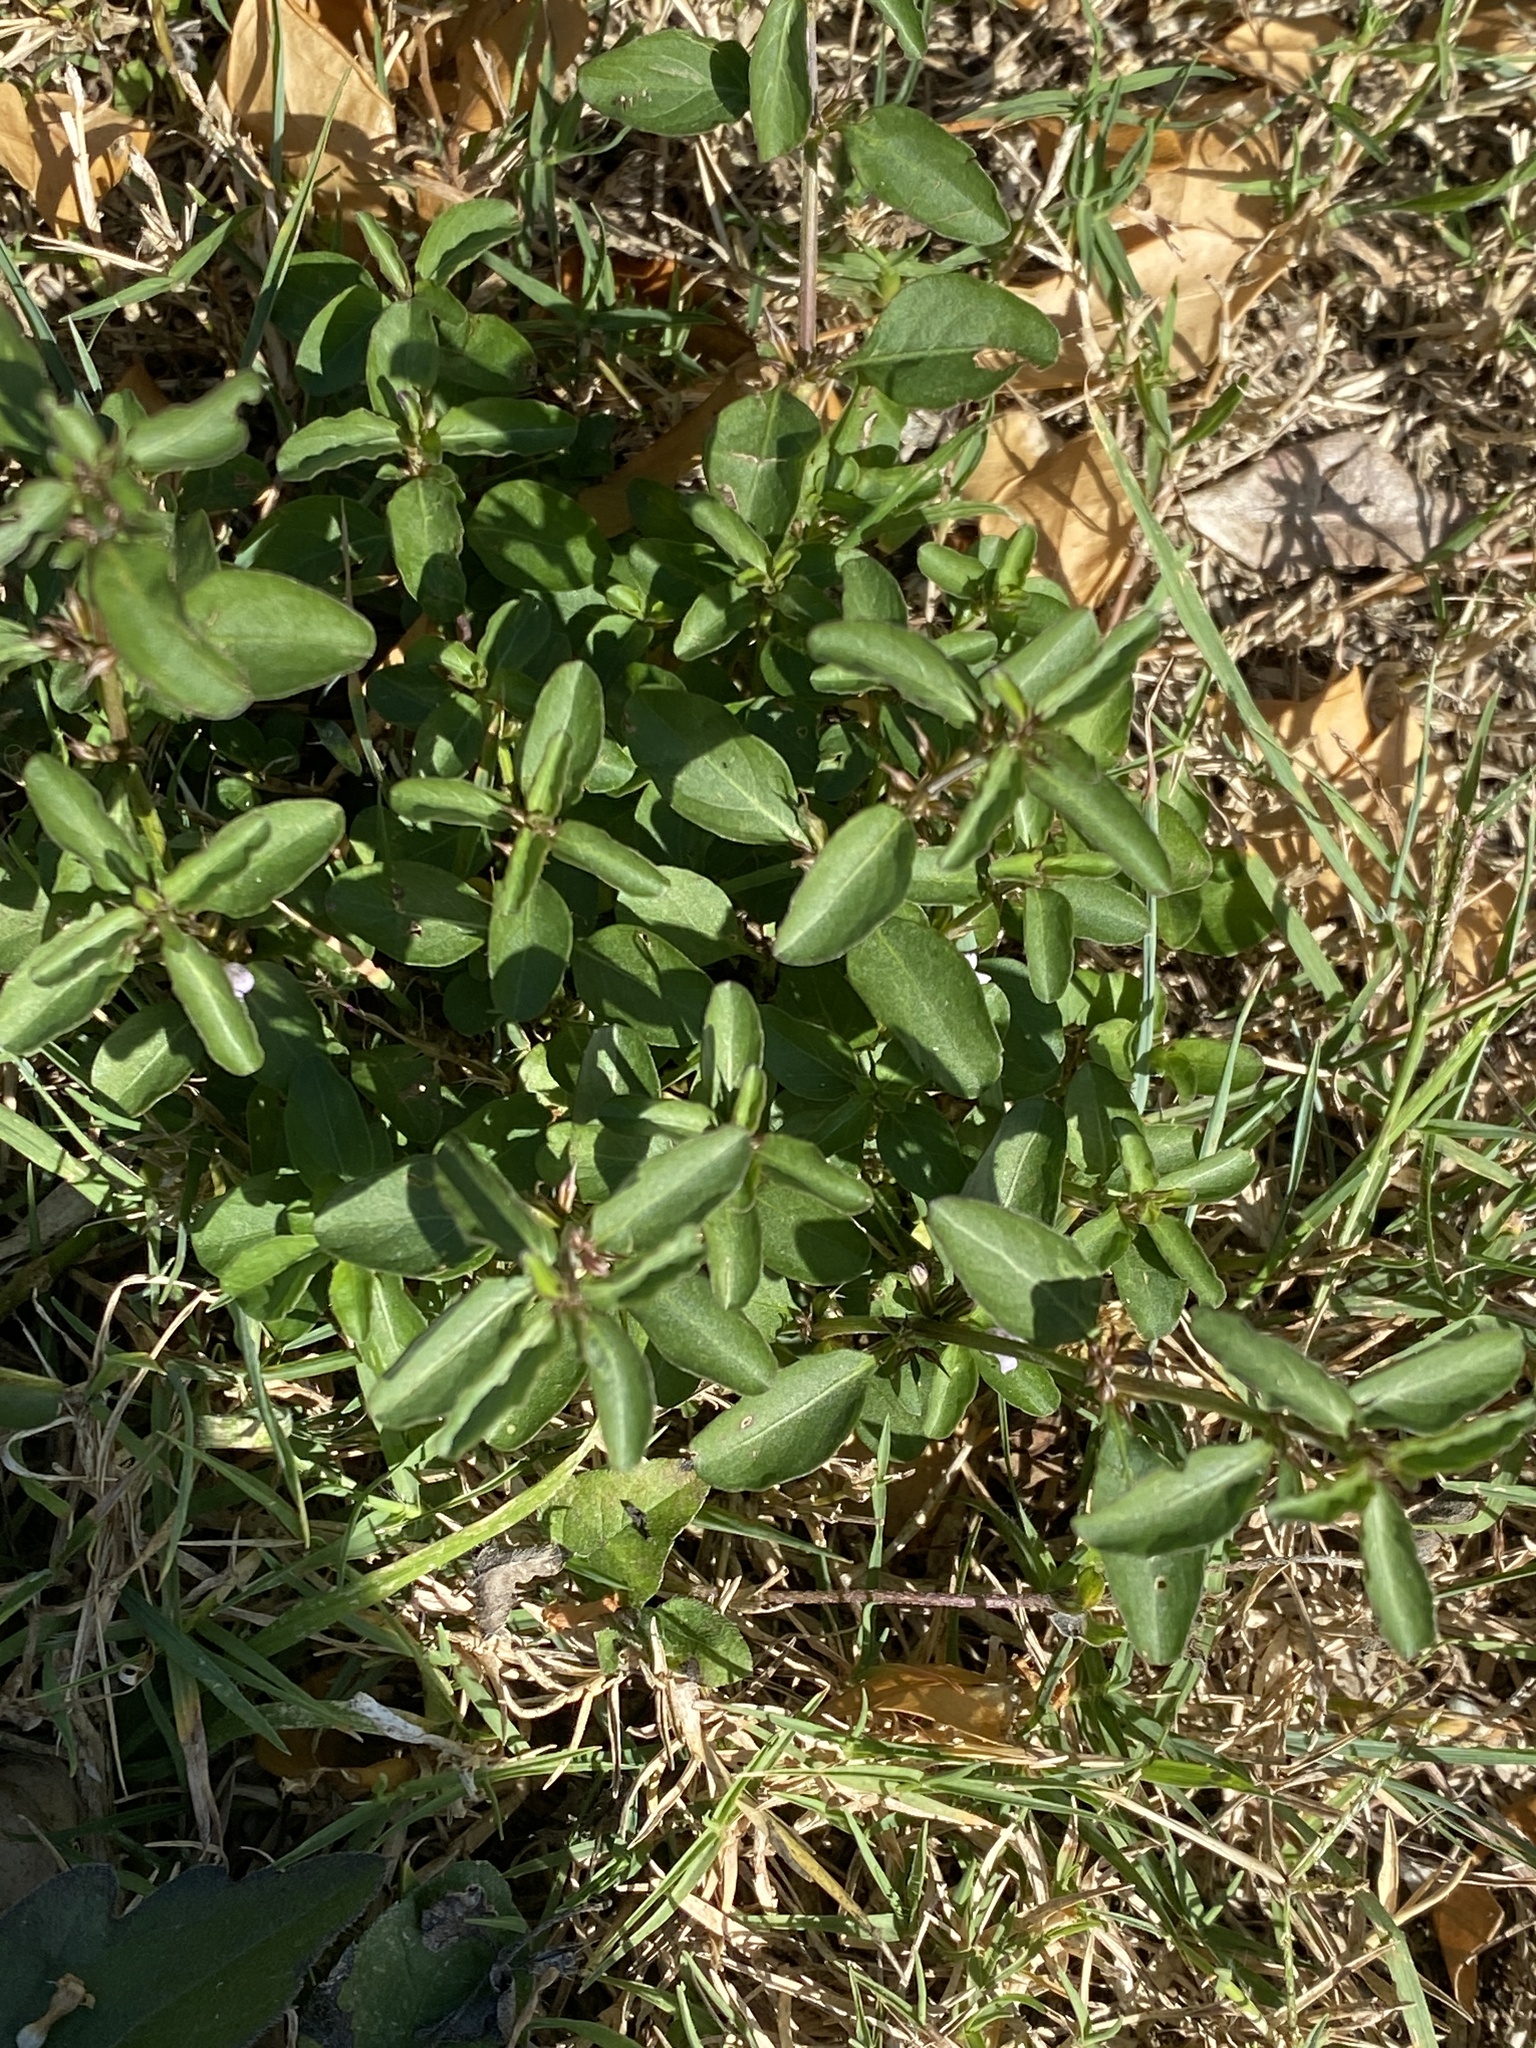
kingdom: Plantae
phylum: Tracheophyta
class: Magnoliopsida
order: Lamiales
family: Acanthaceae
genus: Hygrophila
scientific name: Hygrophila erecta
